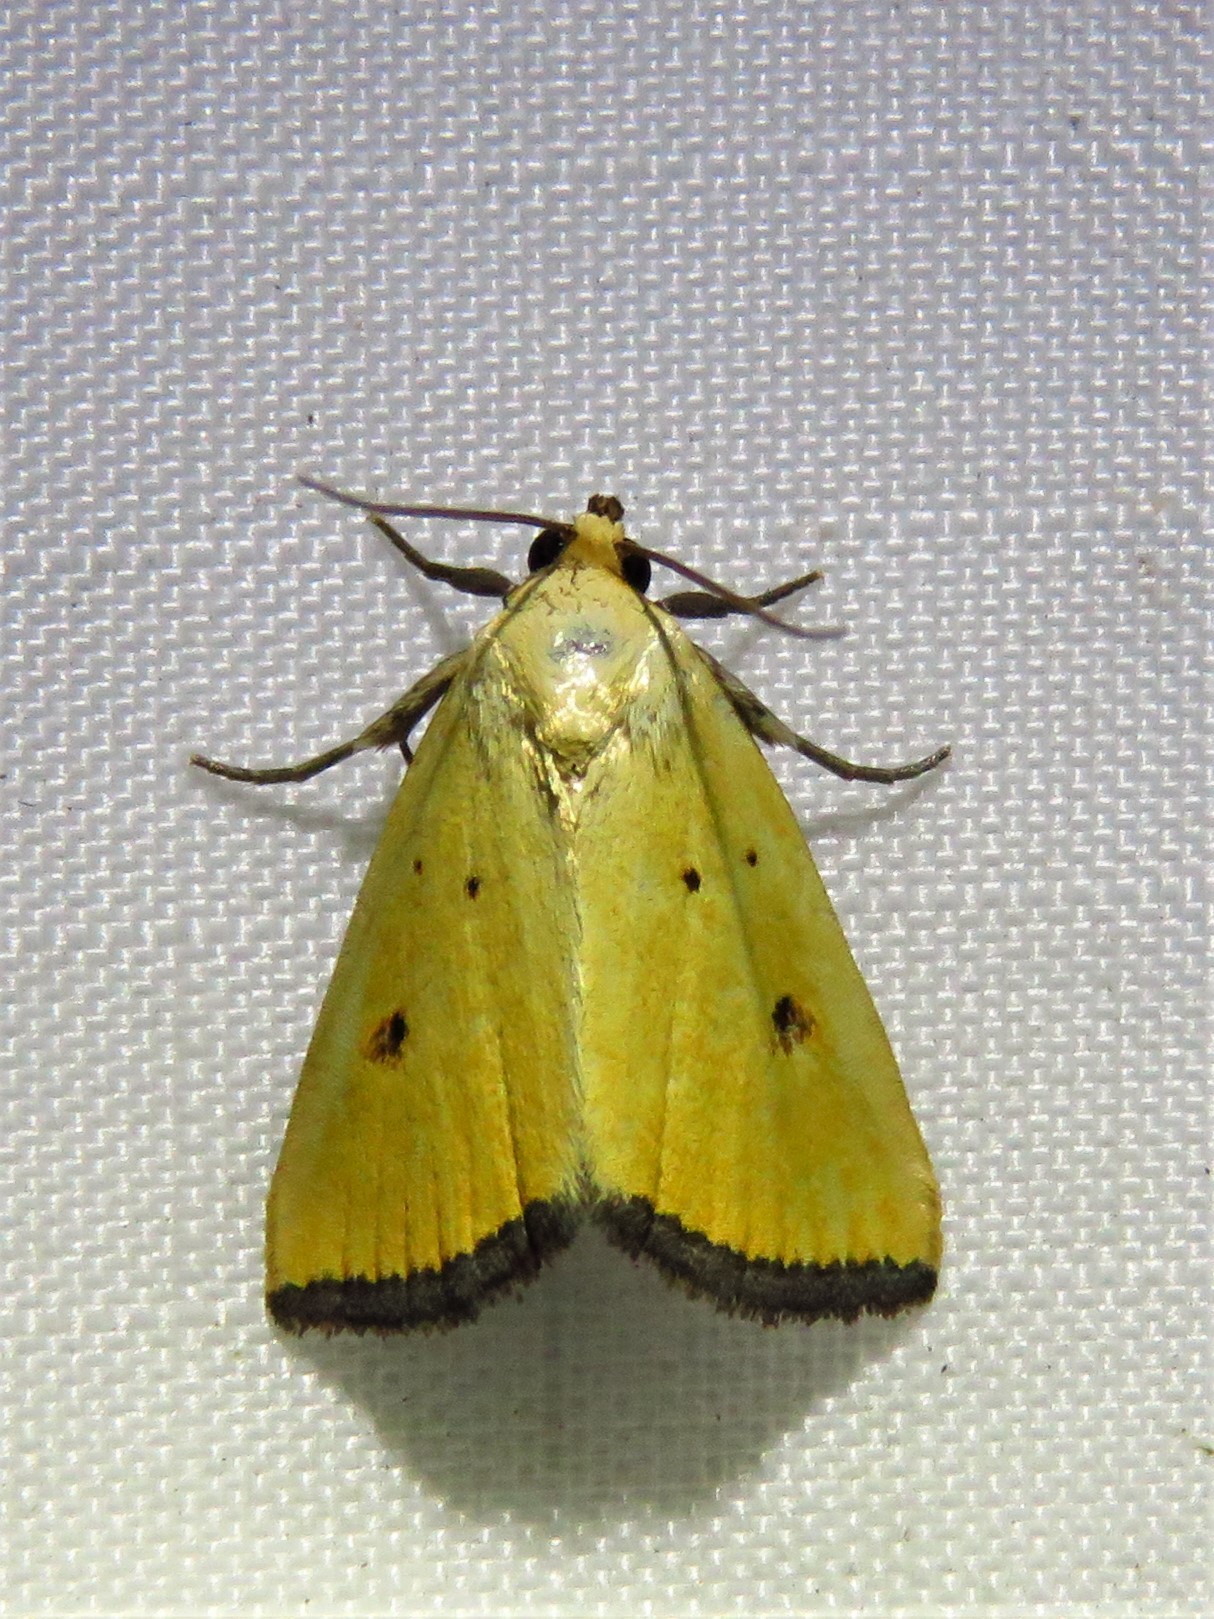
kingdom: Animalia
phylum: Arthropoda
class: Insecta
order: Lepidoptera
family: Noctuidae
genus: Marimatha
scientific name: Marimatha nigrofimbria
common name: Black-bordered lemon moth
